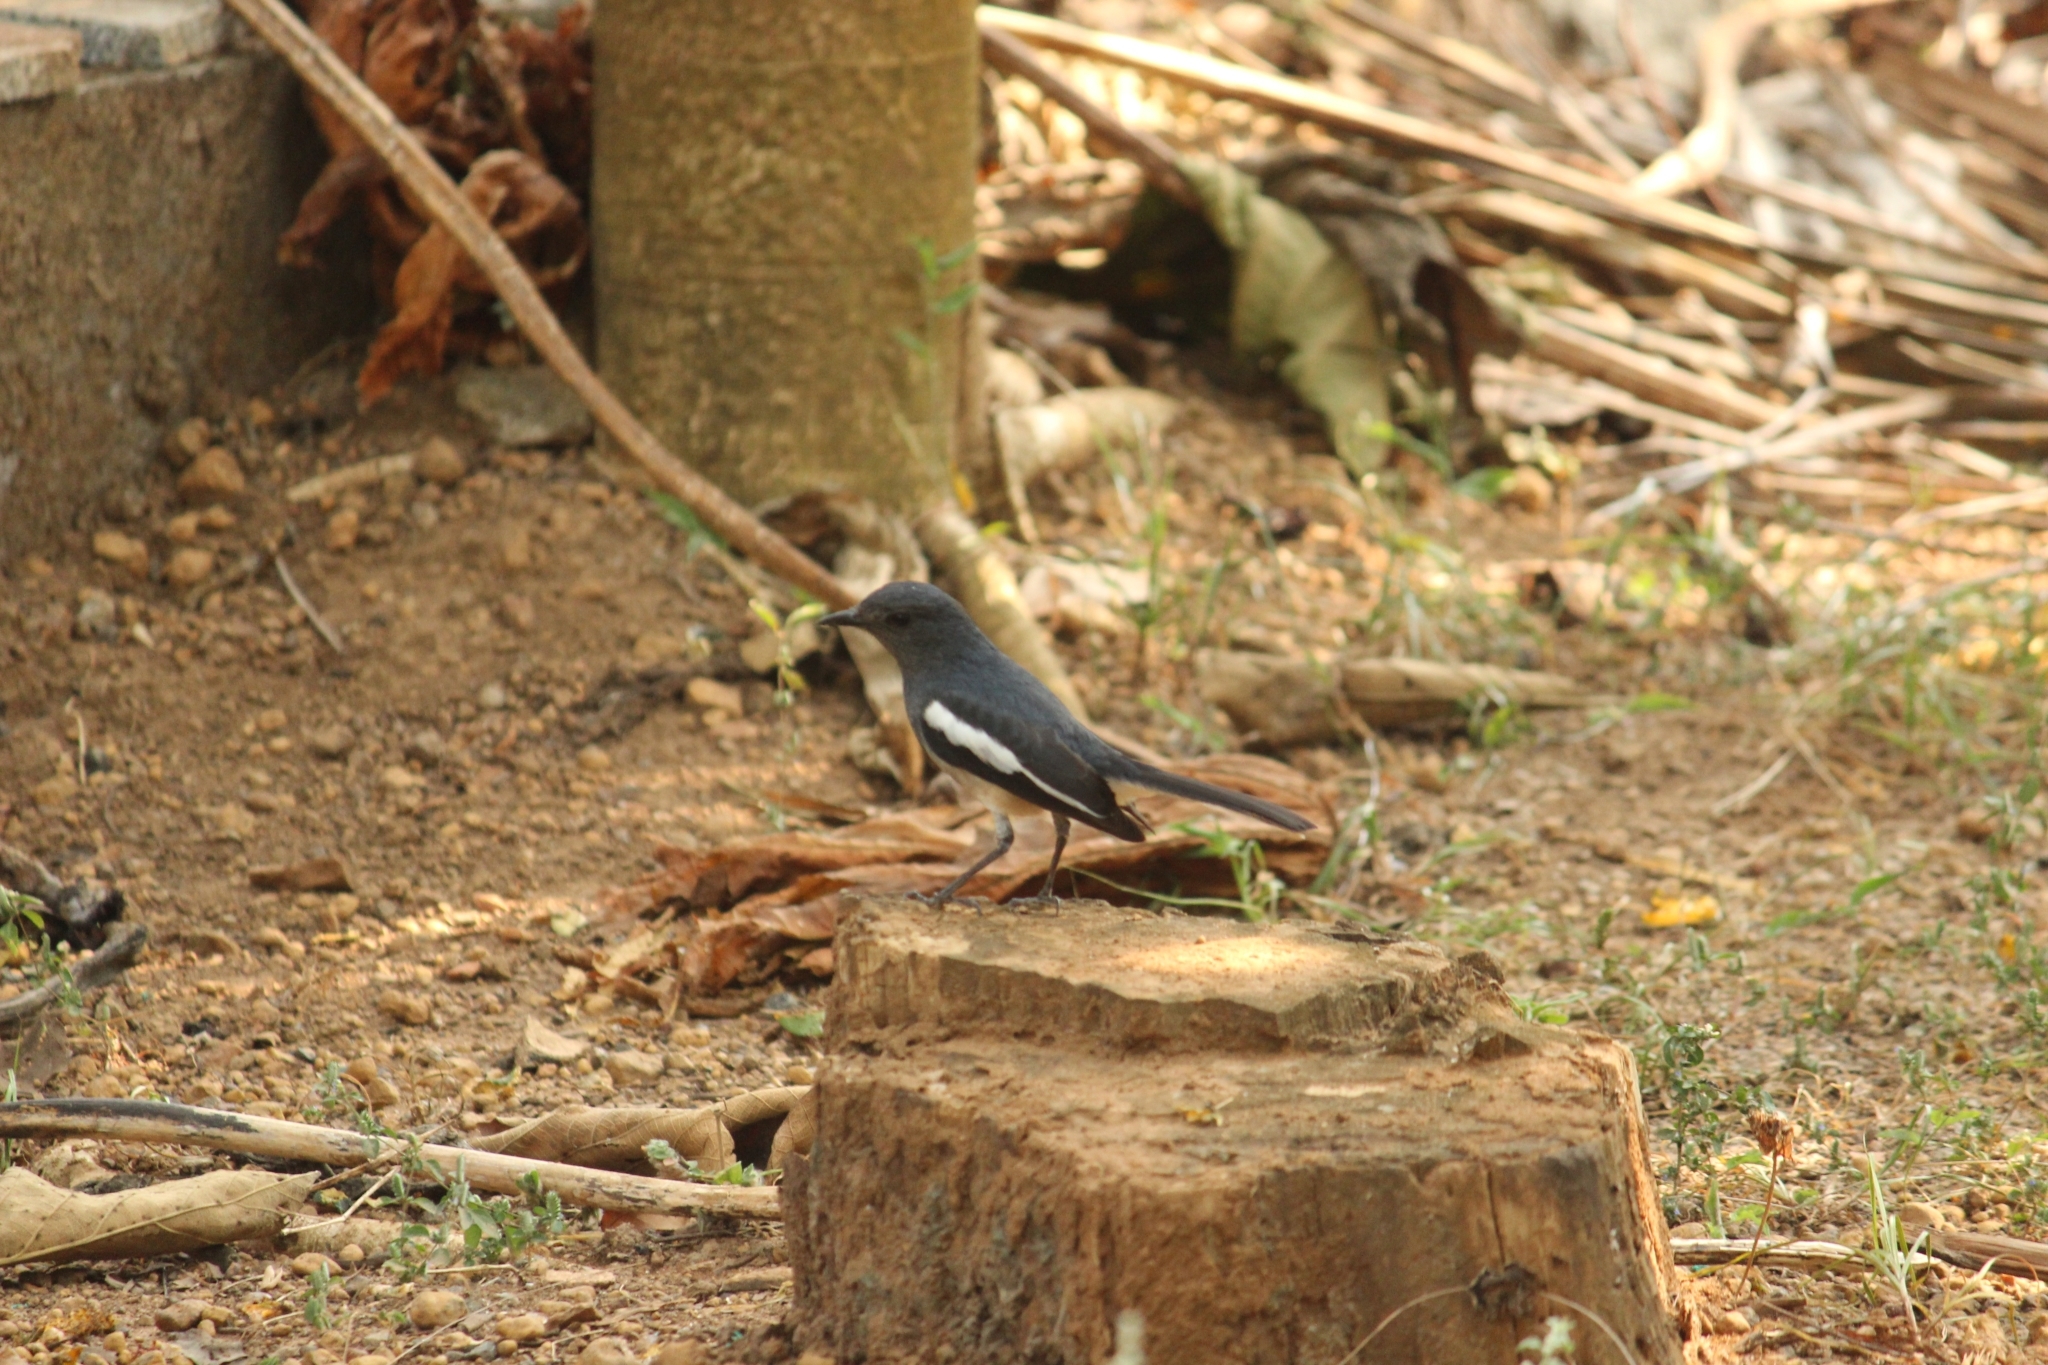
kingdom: Animalia
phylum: Chordata
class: Aves
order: Passeriformes
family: Muscicapidae
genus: Copsychus
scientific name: Copsychus saularis
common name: Oriental magpie-robin
